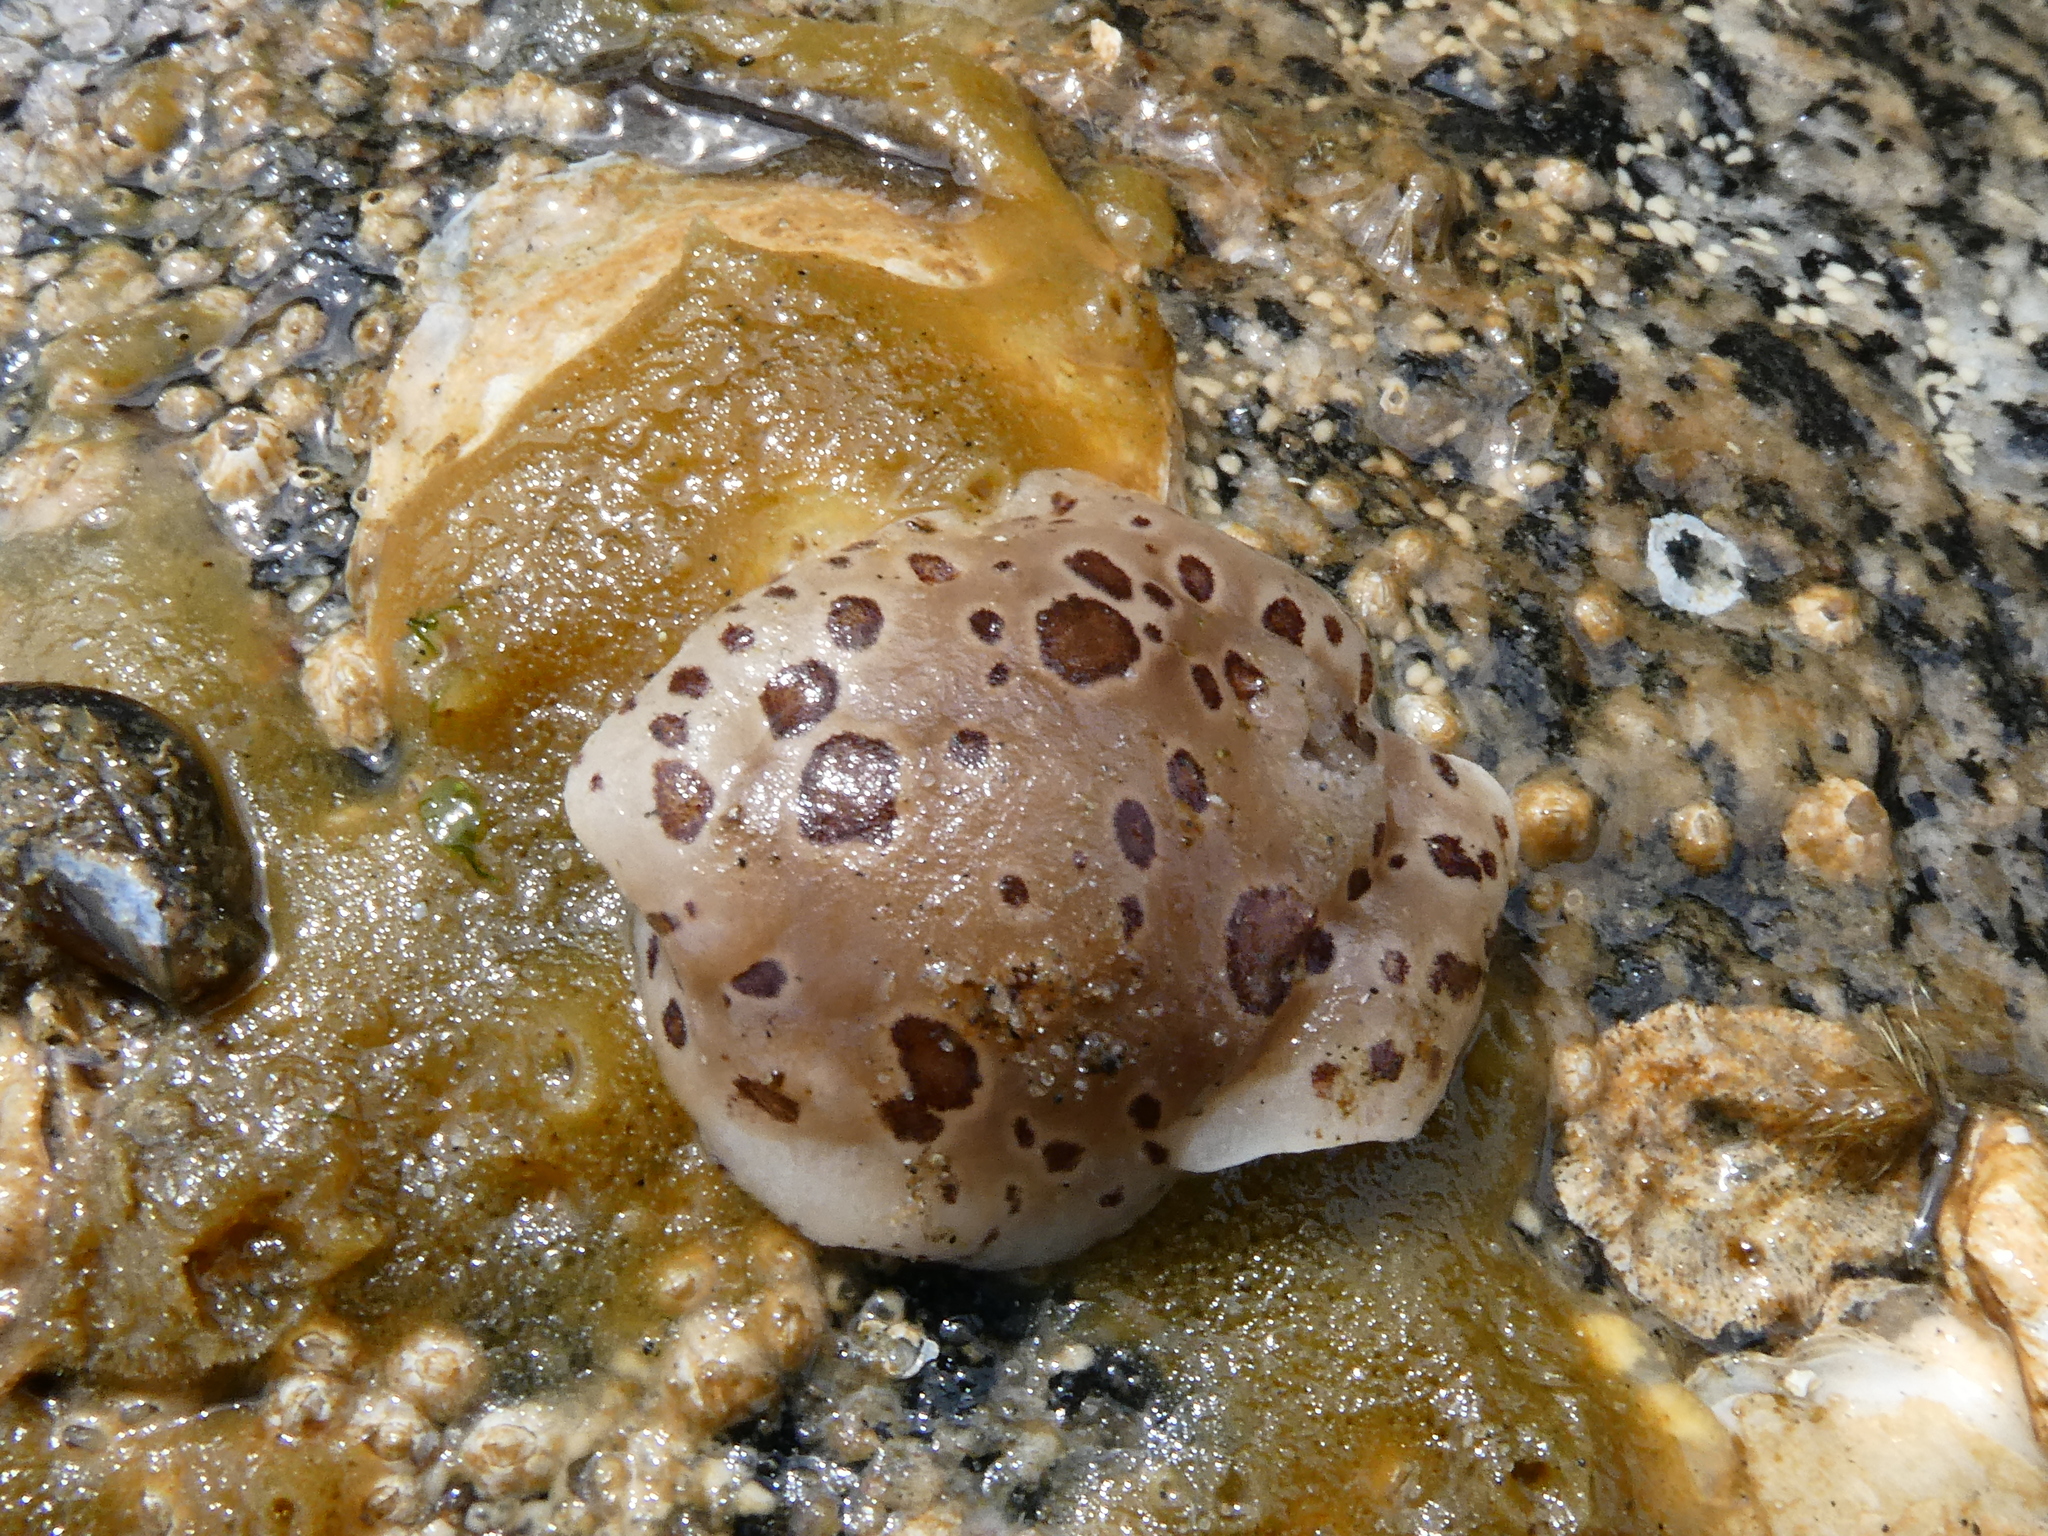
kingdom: Animalia
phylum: Mollusca
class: Gastropoda
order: Nudibranchia
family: Discodorididae
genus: Diaulula
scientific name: Diaulula odonoghuei
